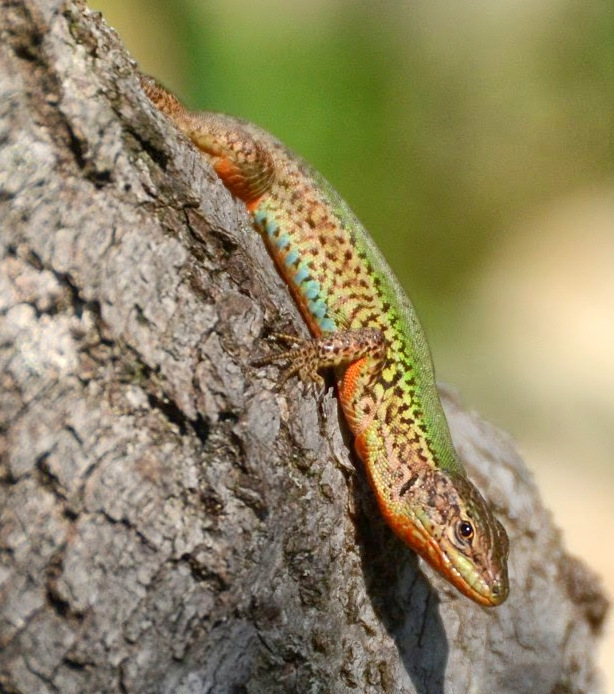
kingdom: Animalia
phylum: Chordata
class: Squamata
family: Lacertidae
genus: Podarcis
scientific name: Podarcis melisellensis
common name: Dalmatian wall lizard
